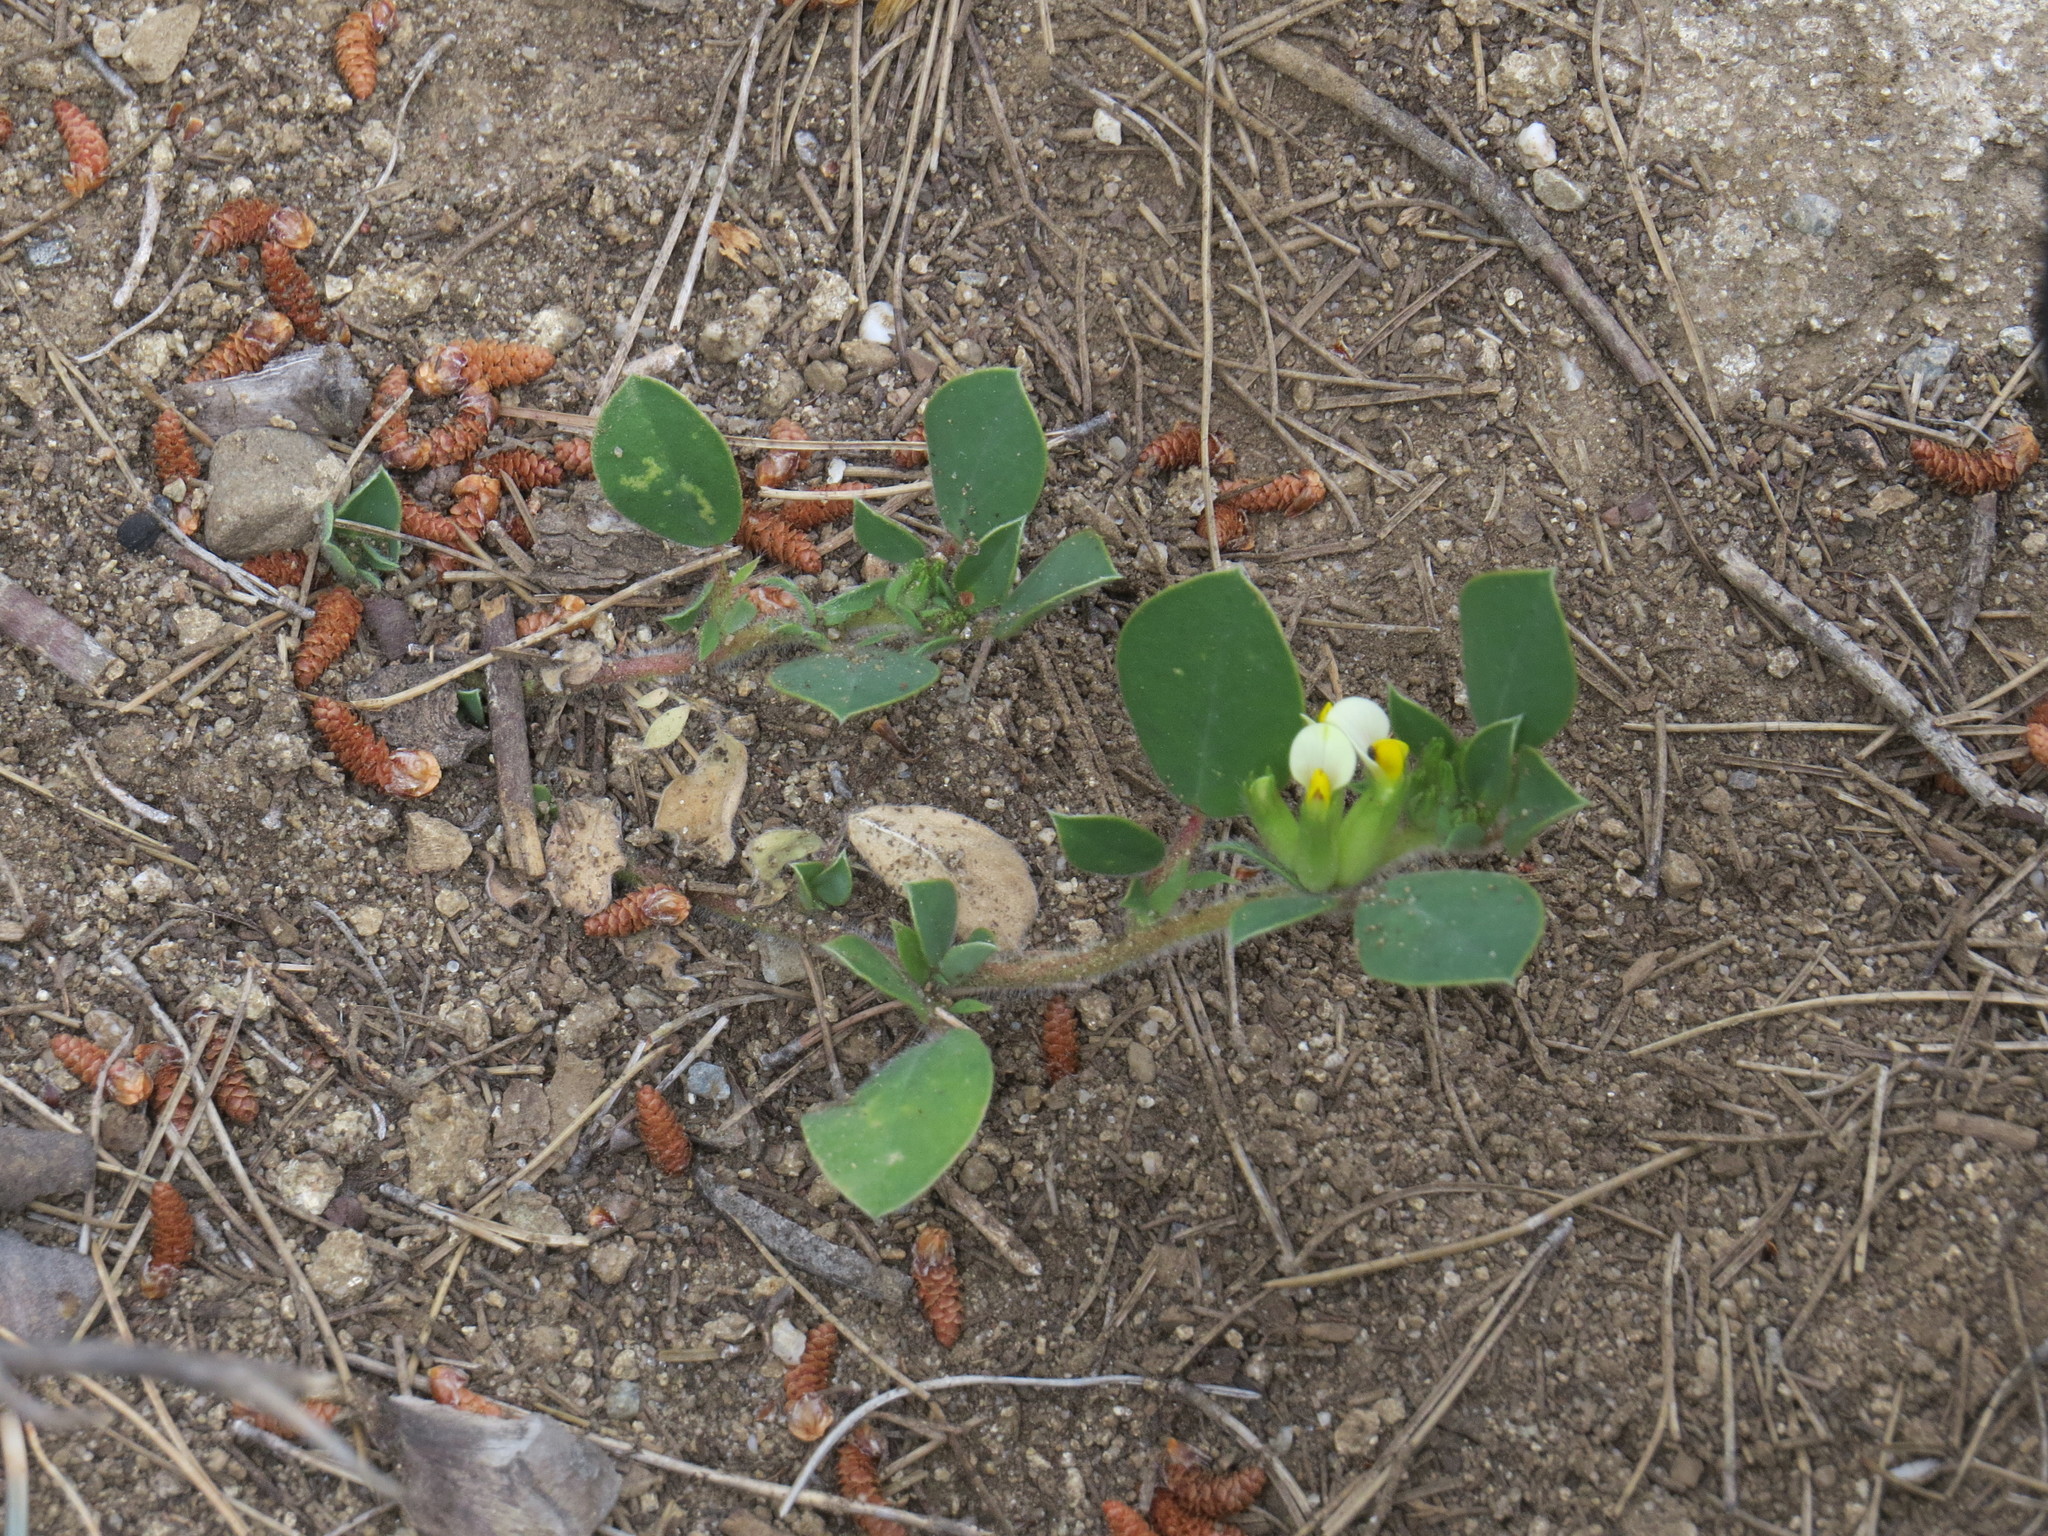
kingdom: Plantae
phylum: Tracheophyta
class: Magnoliopsida
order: Fabales
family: Fabaceae
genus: Tripodion
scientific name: Tripodion tetraphyllum
